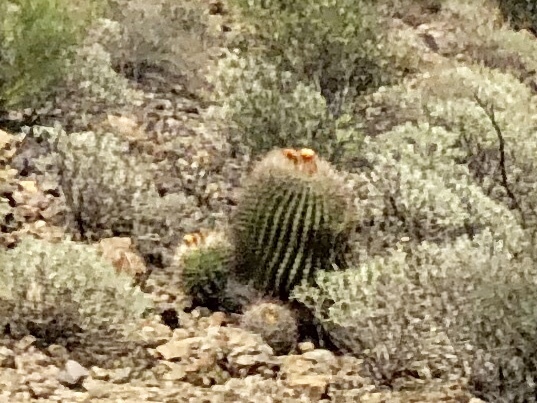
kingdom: Plantae
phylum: Tracheophyta
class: Magnoliopsida
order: Caryophyllales
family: Cactaceae
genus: Ferocactus
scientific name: Ferocactus wislizeni
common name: Candy barrel cactus
